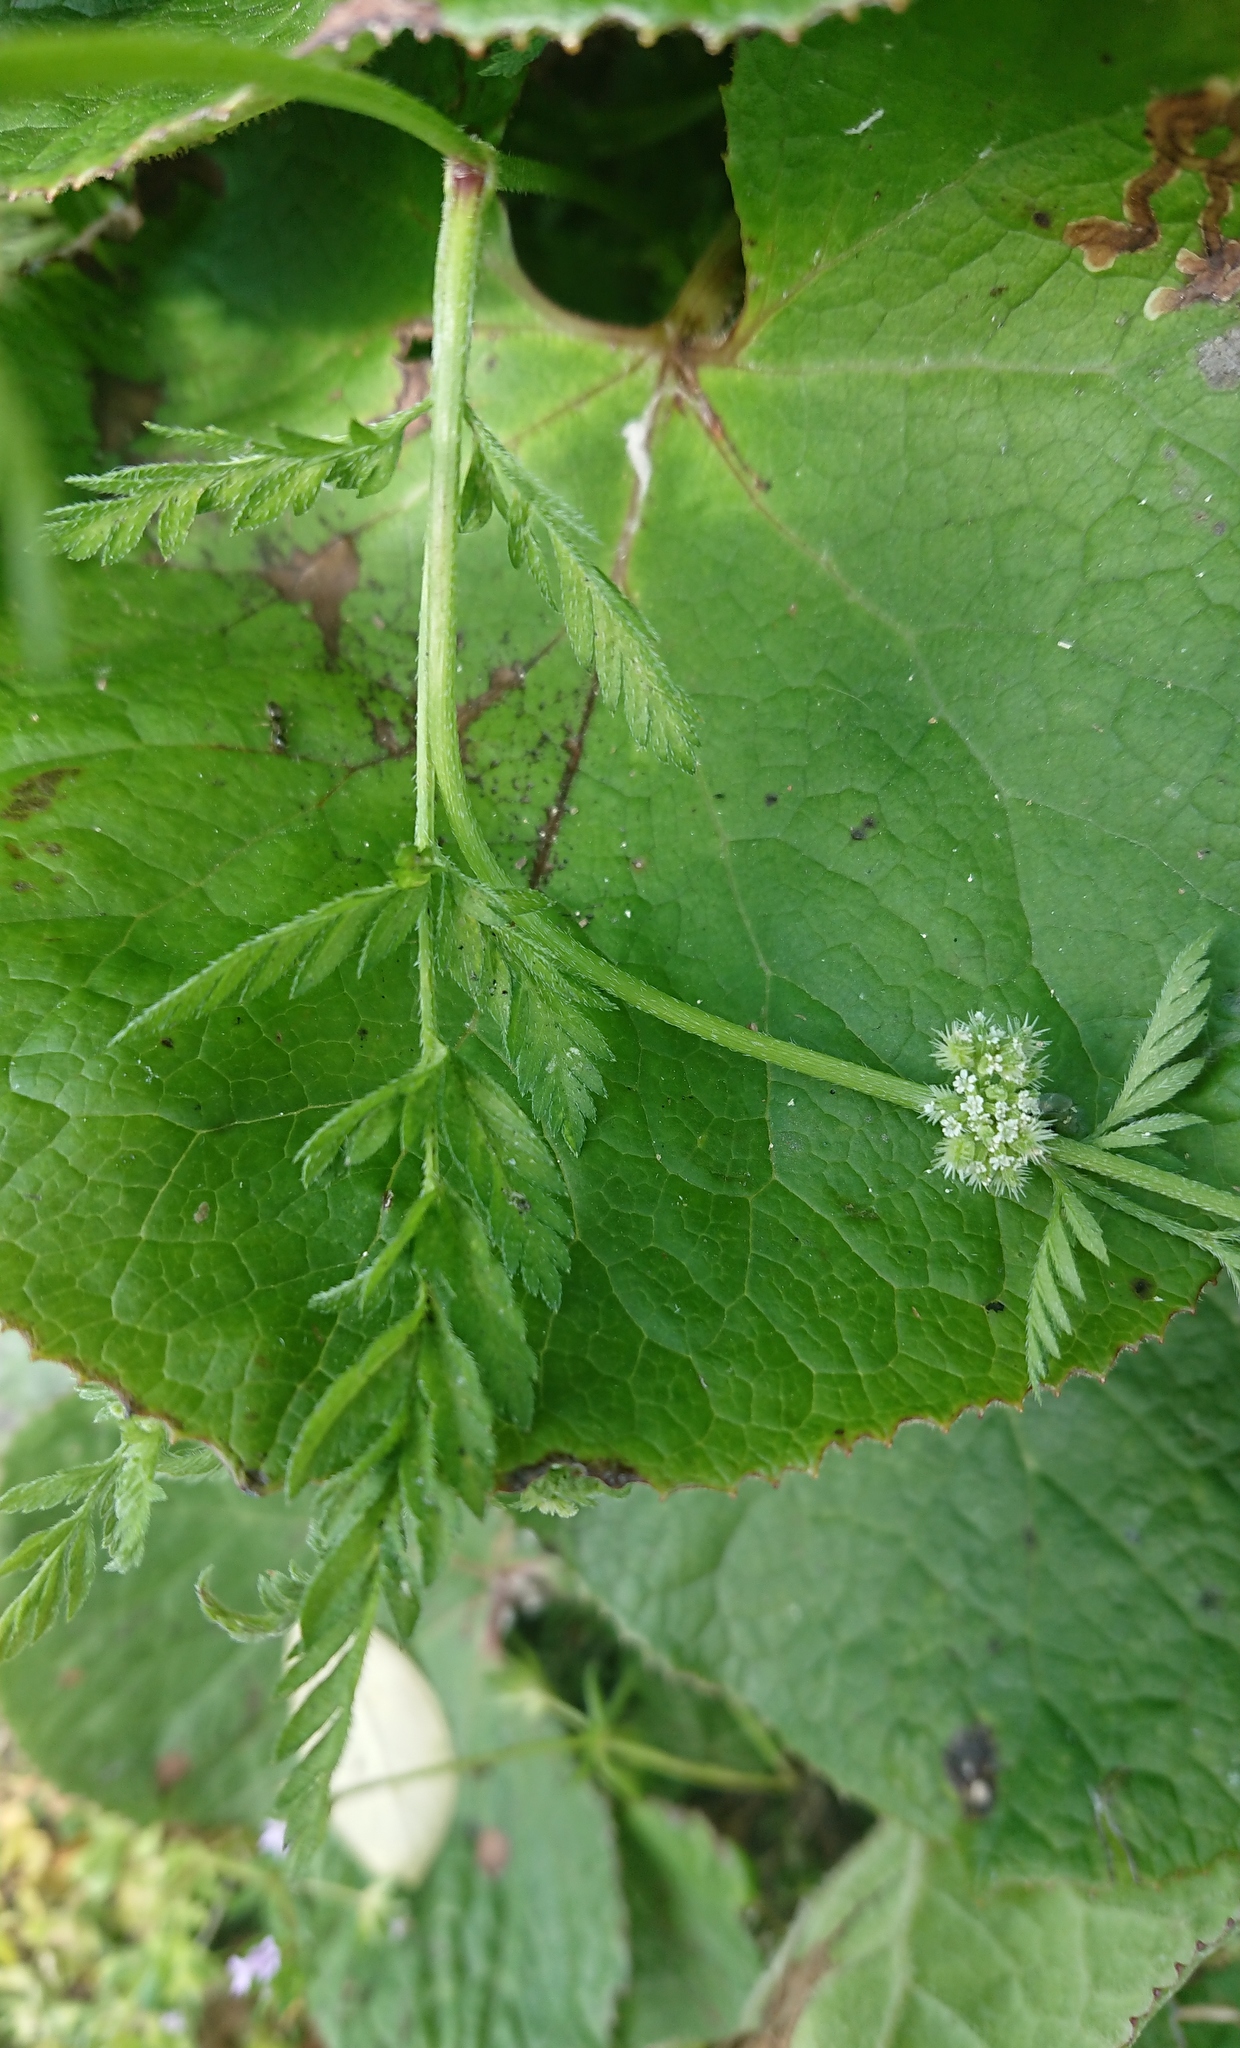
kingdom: Plantae
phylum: Tracheophyta
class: Magnoliopsida
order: Apiales
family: Apiaceae
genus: Torilis
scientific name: Torilis nodosa
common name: Knotted hedge-parsley
